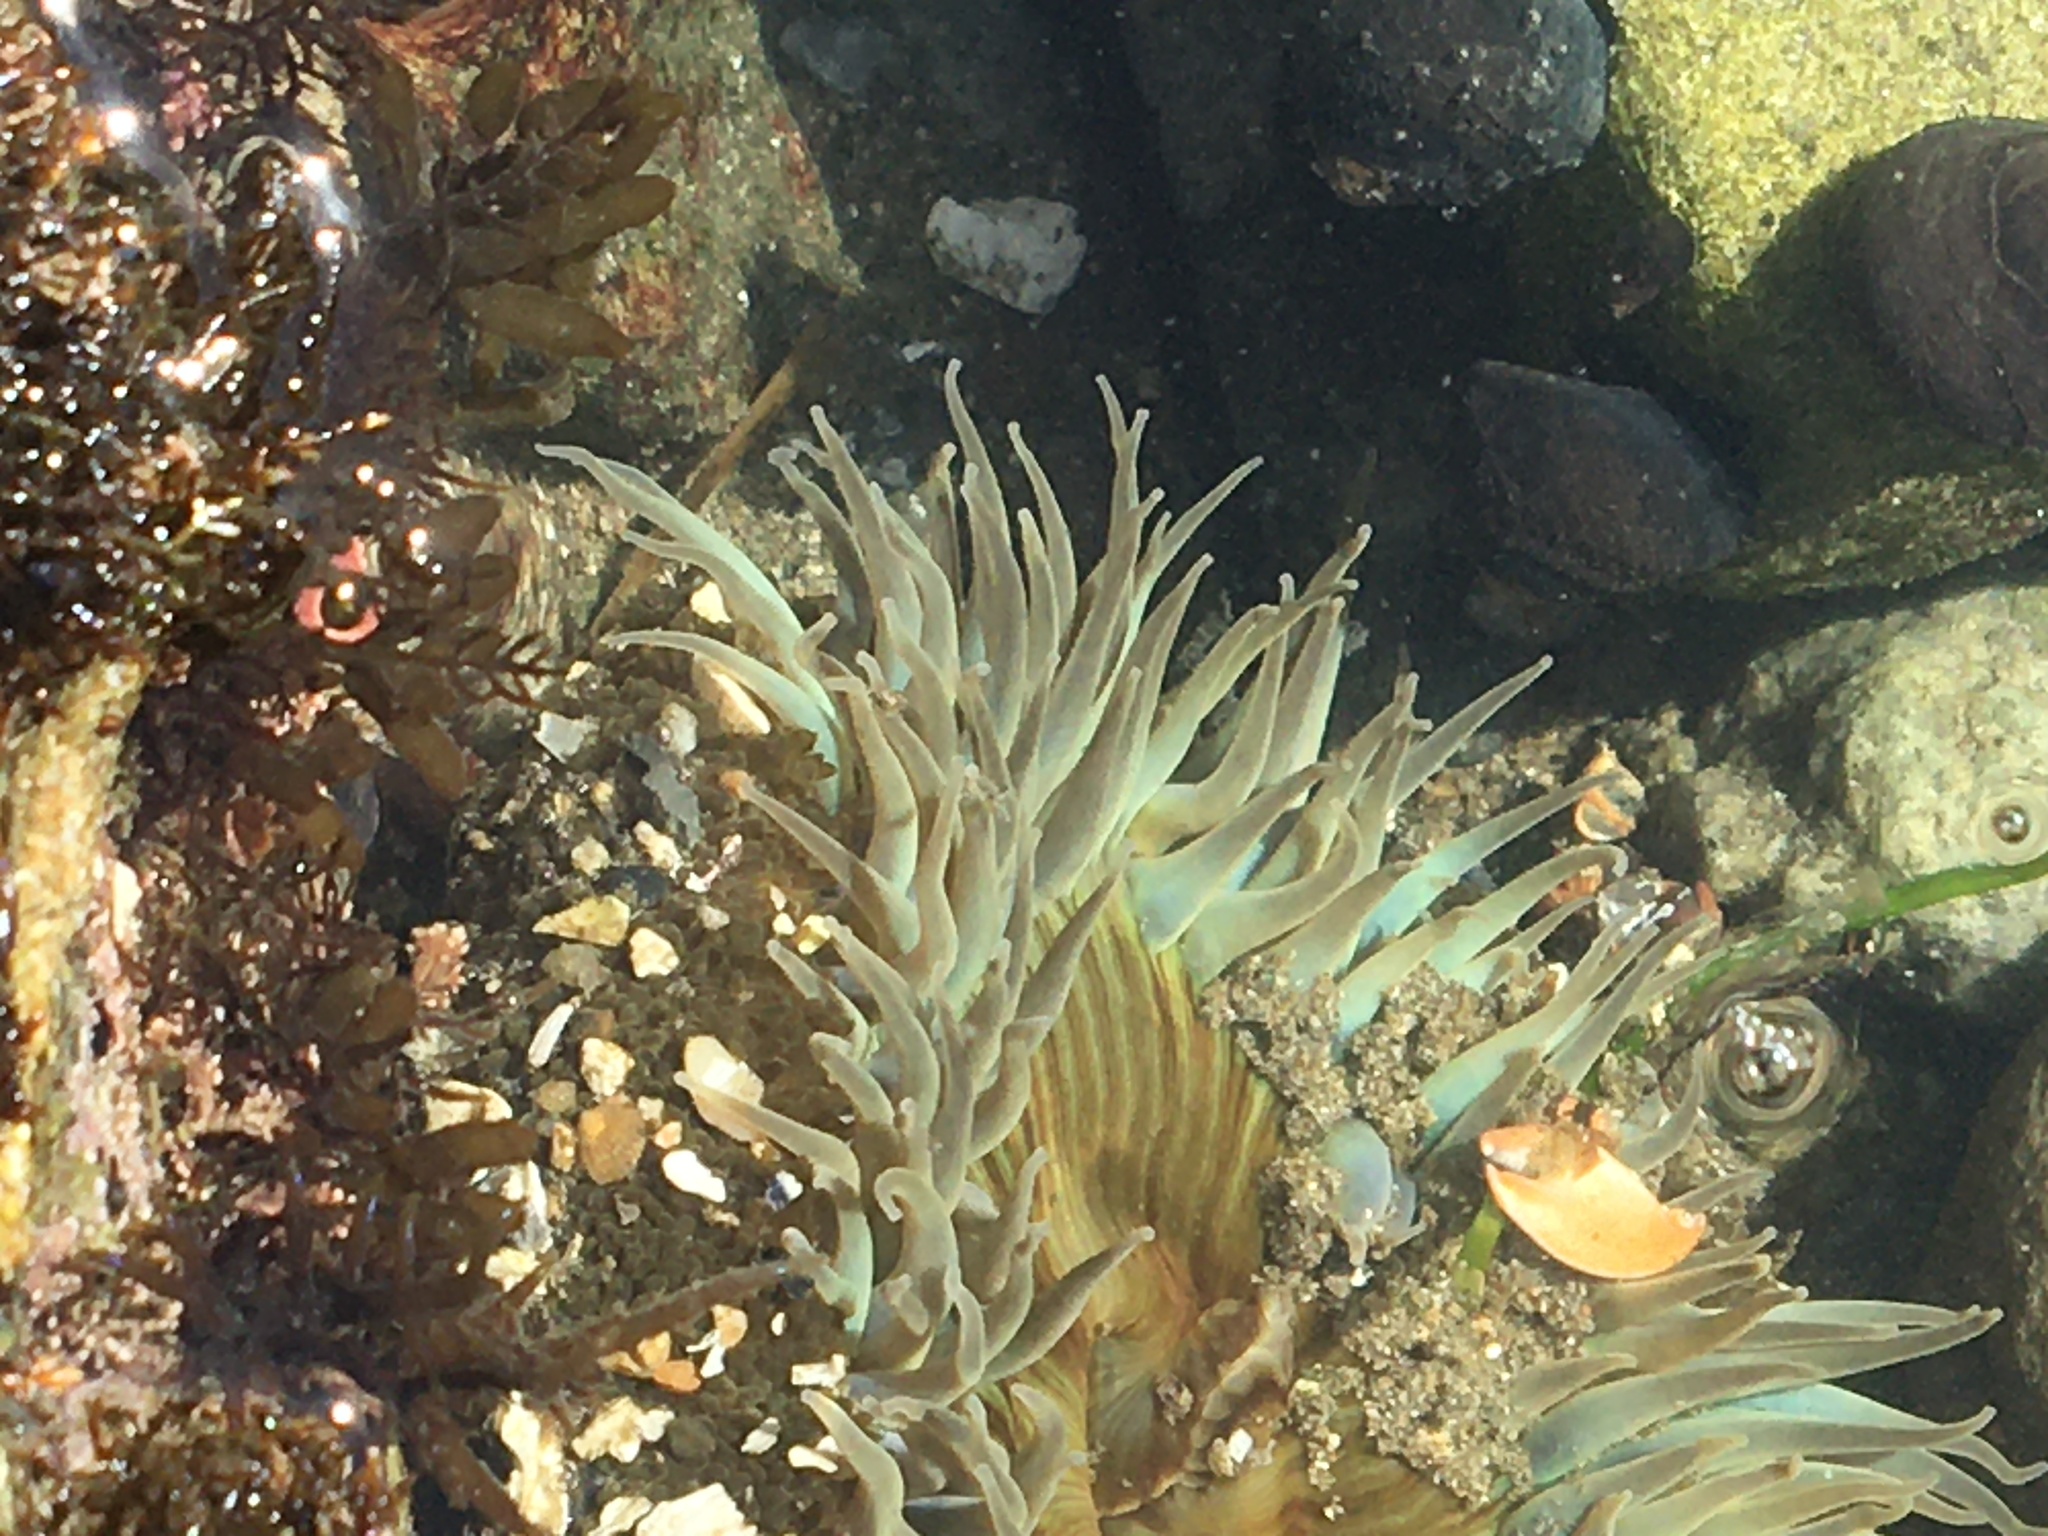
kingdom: Animalia
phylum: Cnidaria
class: Anthozoa
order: Actiniaria
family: Actiniidae
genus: Anthopleura
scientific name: Anthopleura sola
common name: Sun anemone
